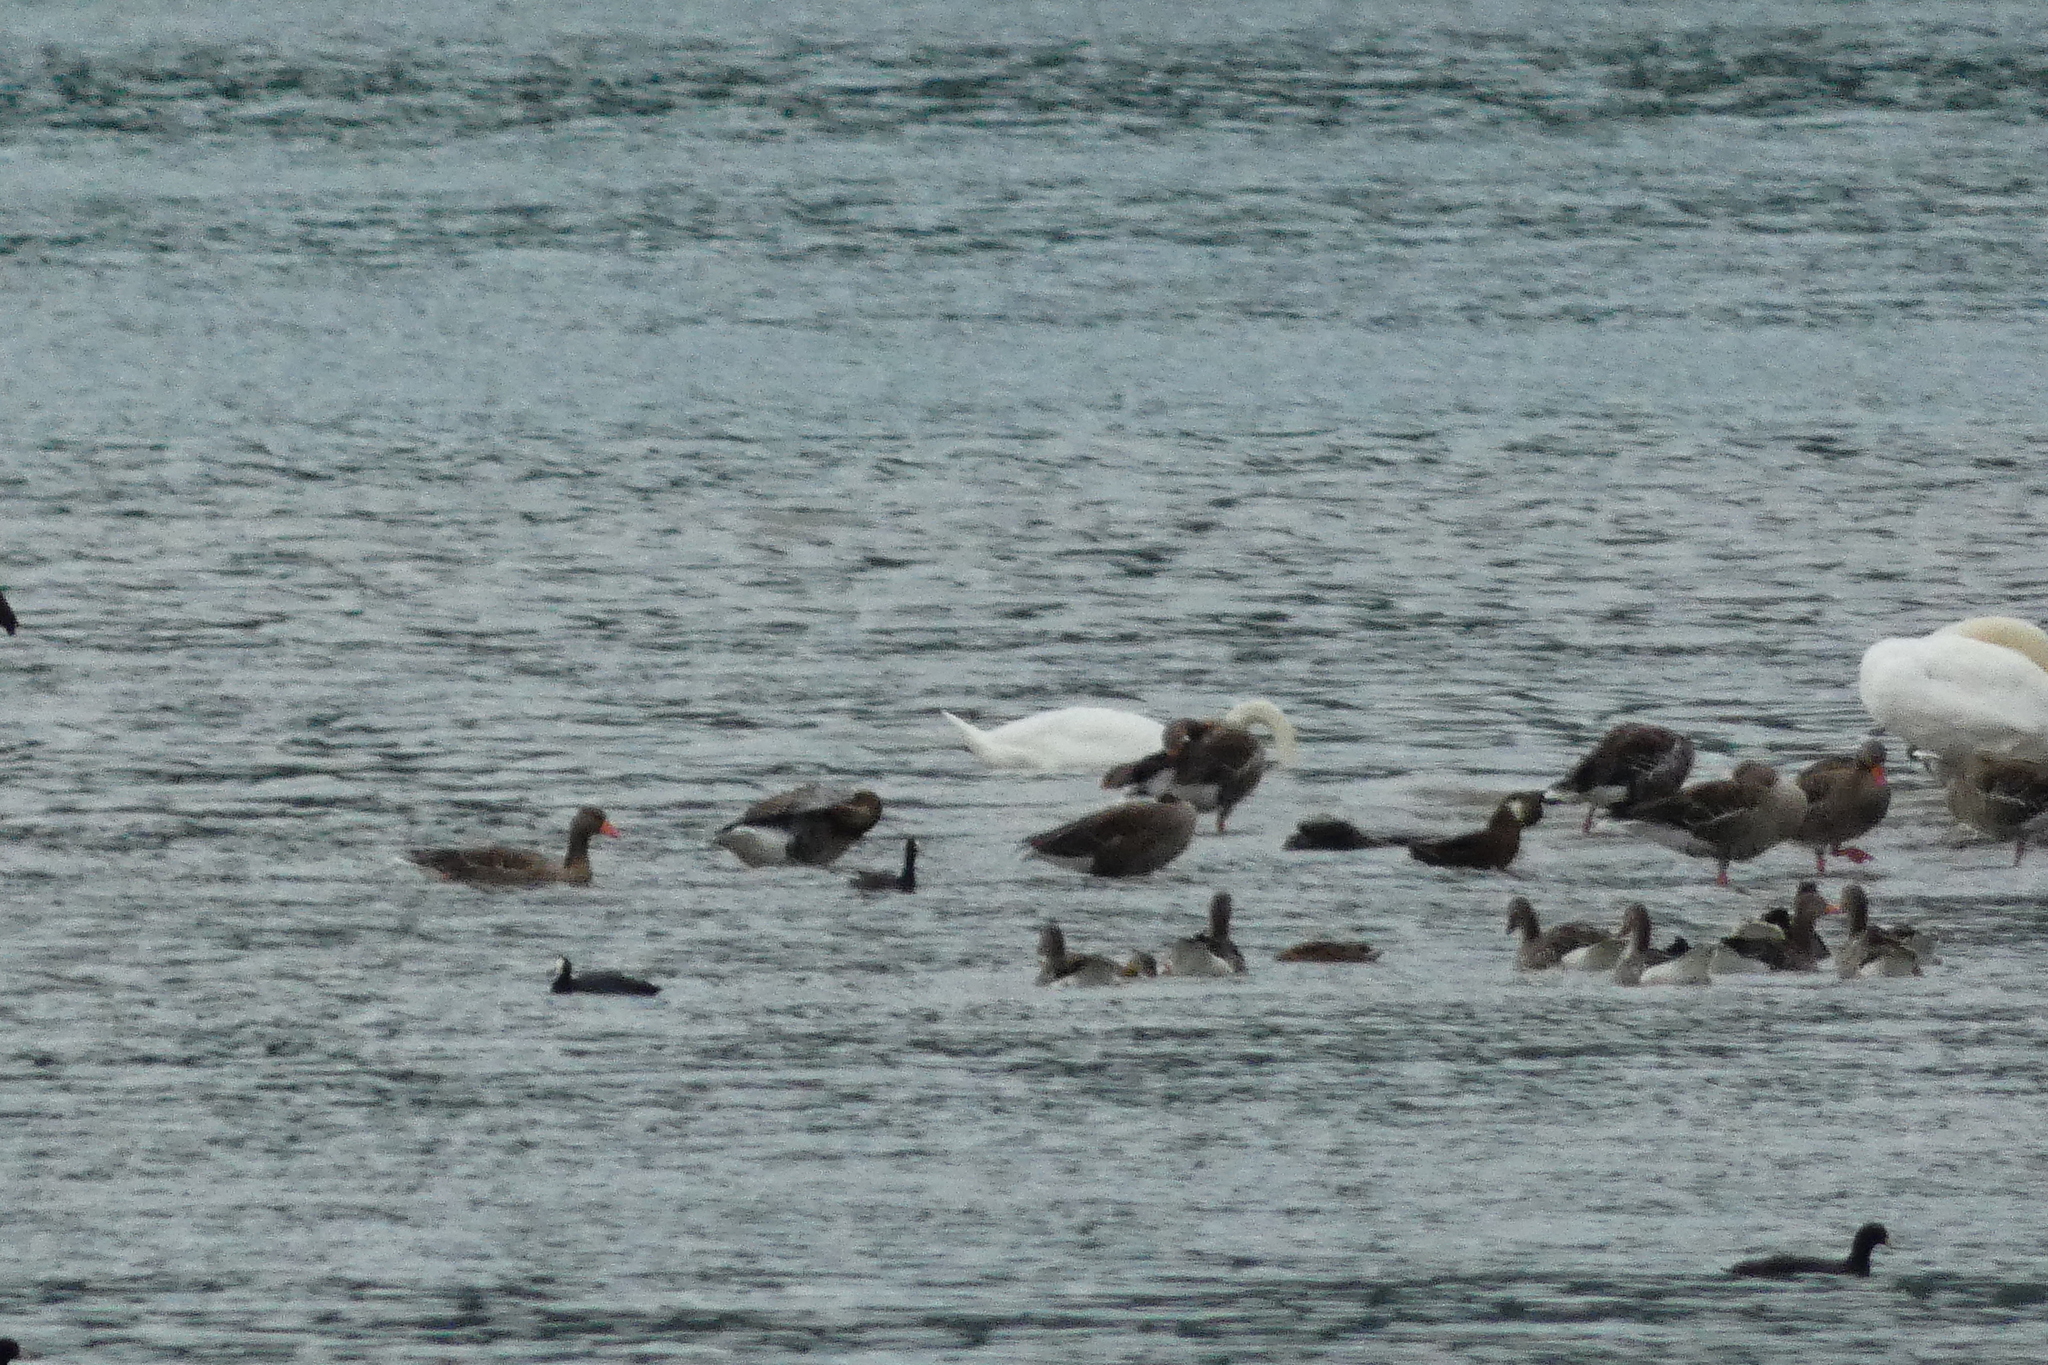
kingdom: Animalia
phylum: Chordata
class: Aves
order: Anseriformes
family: Anatidae
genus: Anser
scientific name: Anser anser
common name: Greylag goose
